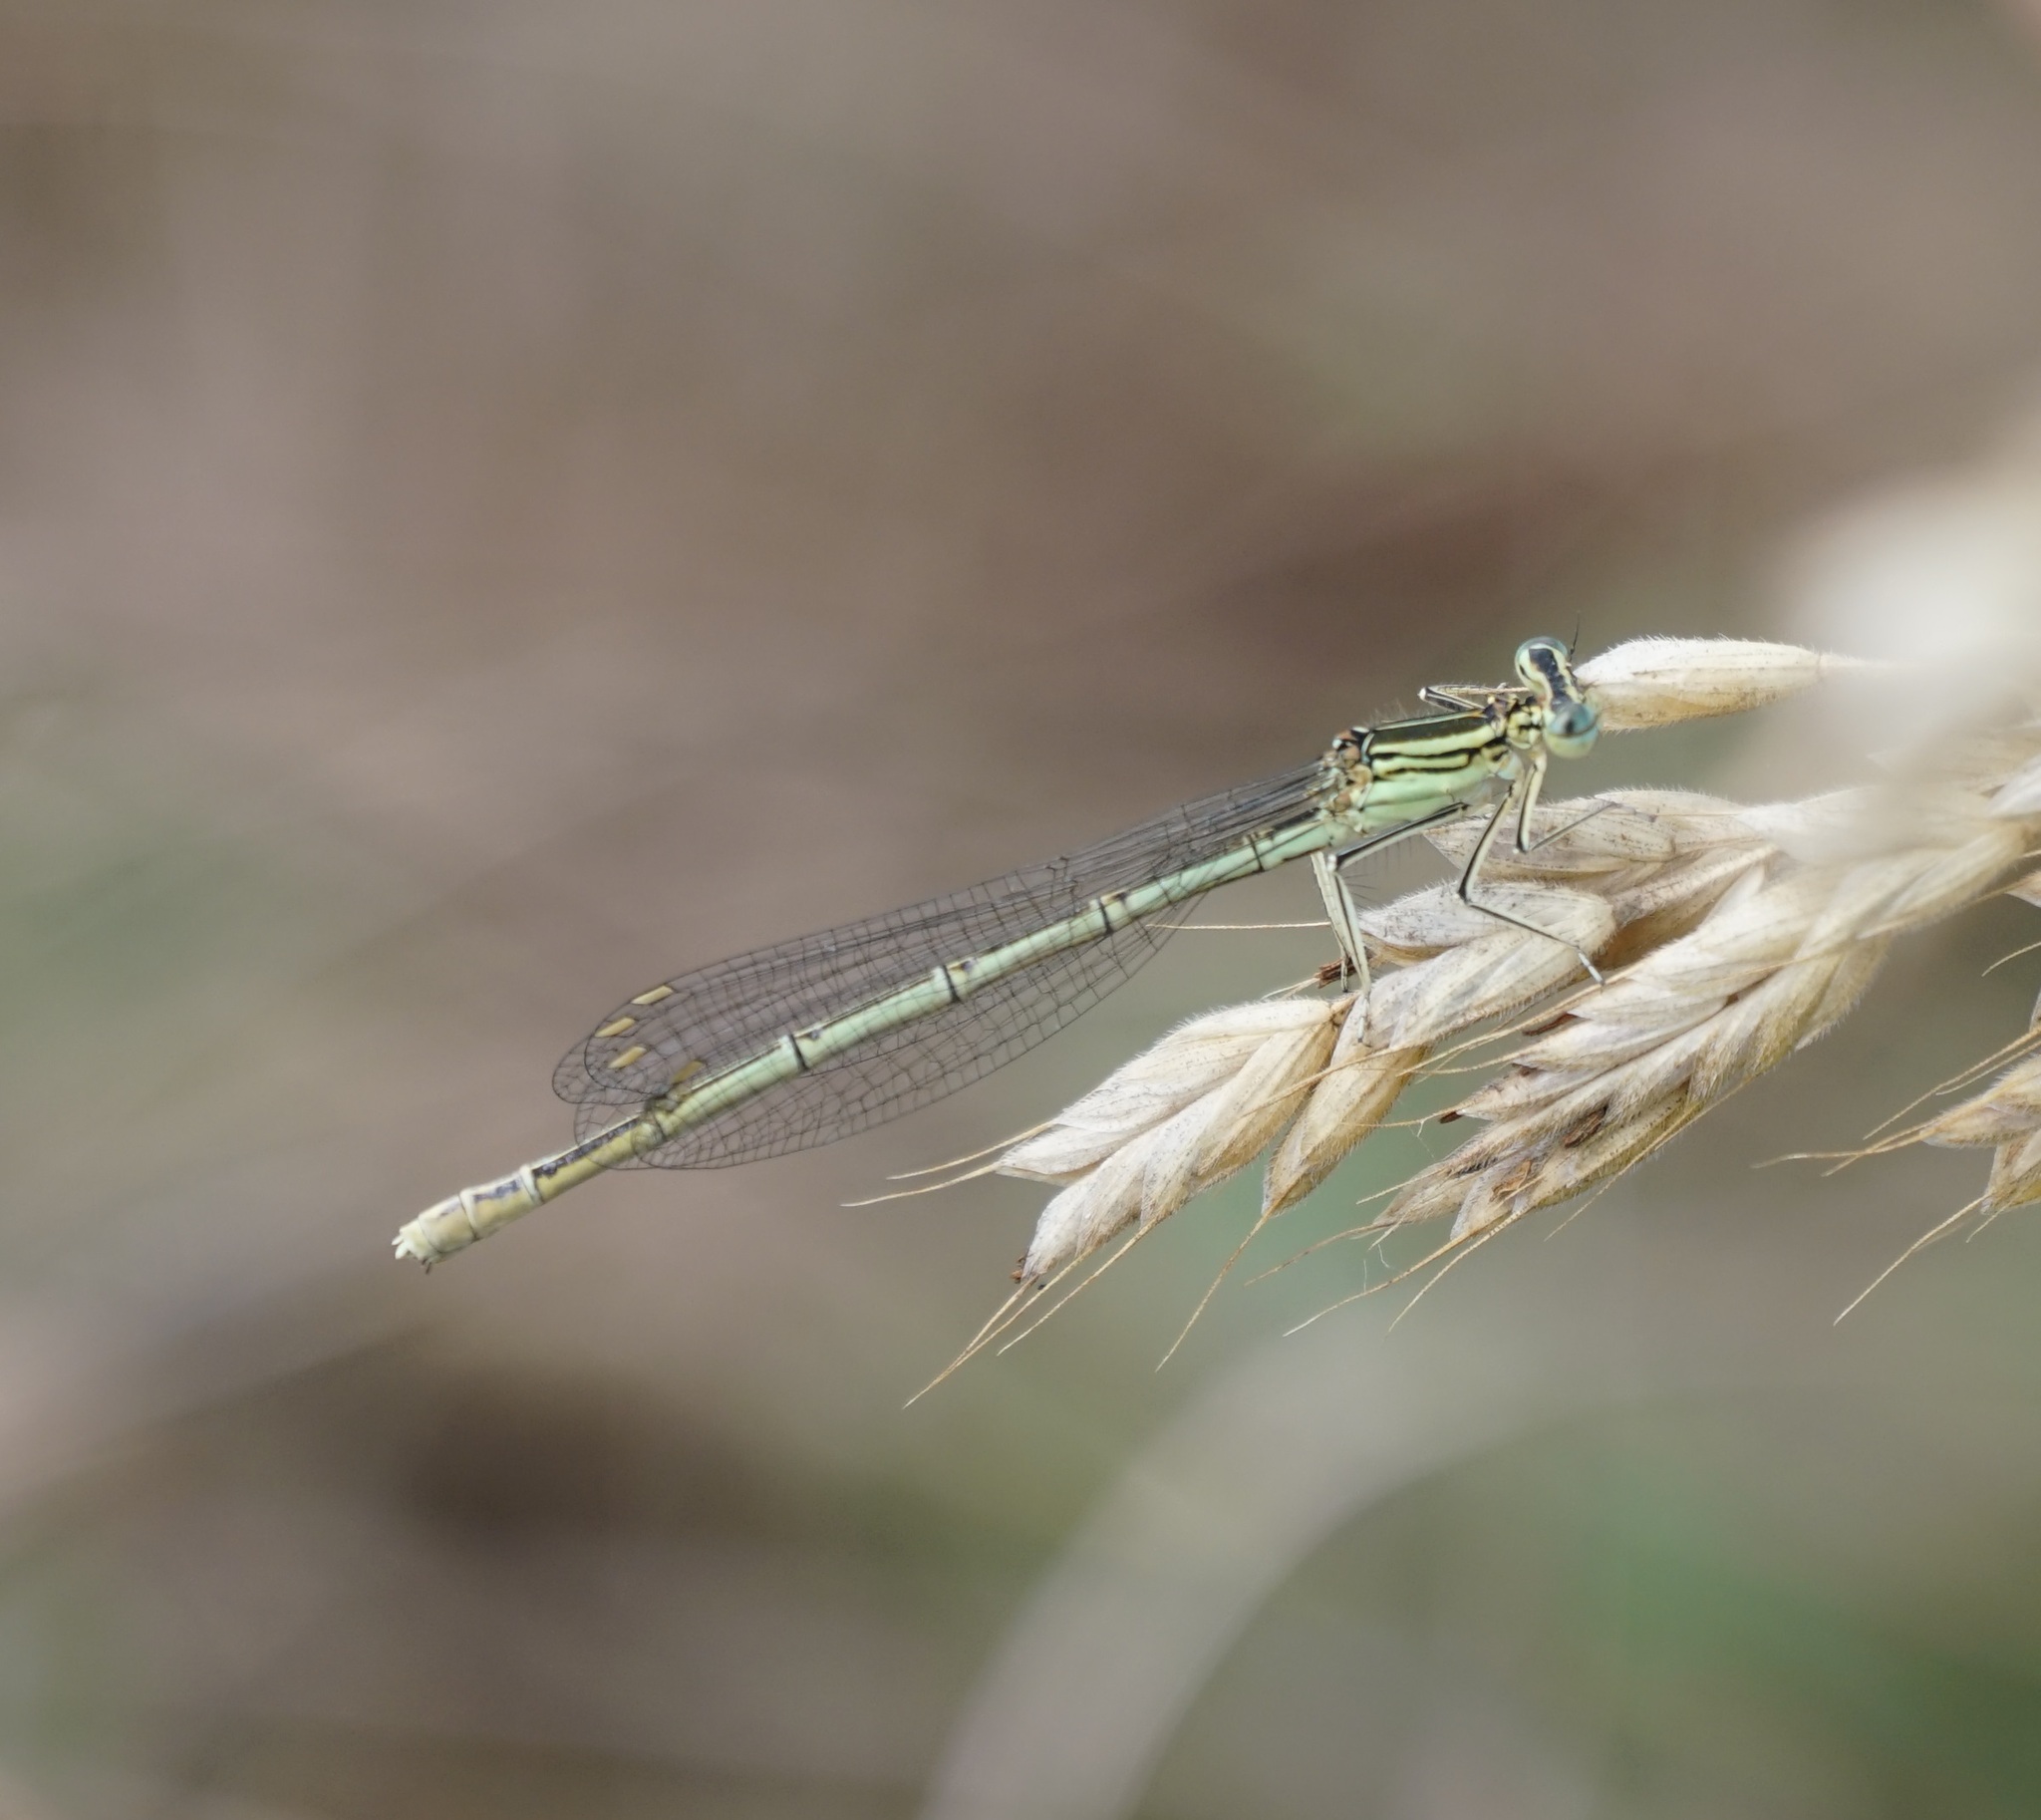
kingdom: Animalia
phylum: Arthropoda
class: Insecta
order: Odonata
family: Platycnemididae
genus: Platycnemis
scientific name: Platycnemis pennipes
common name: White-legged damselfly
